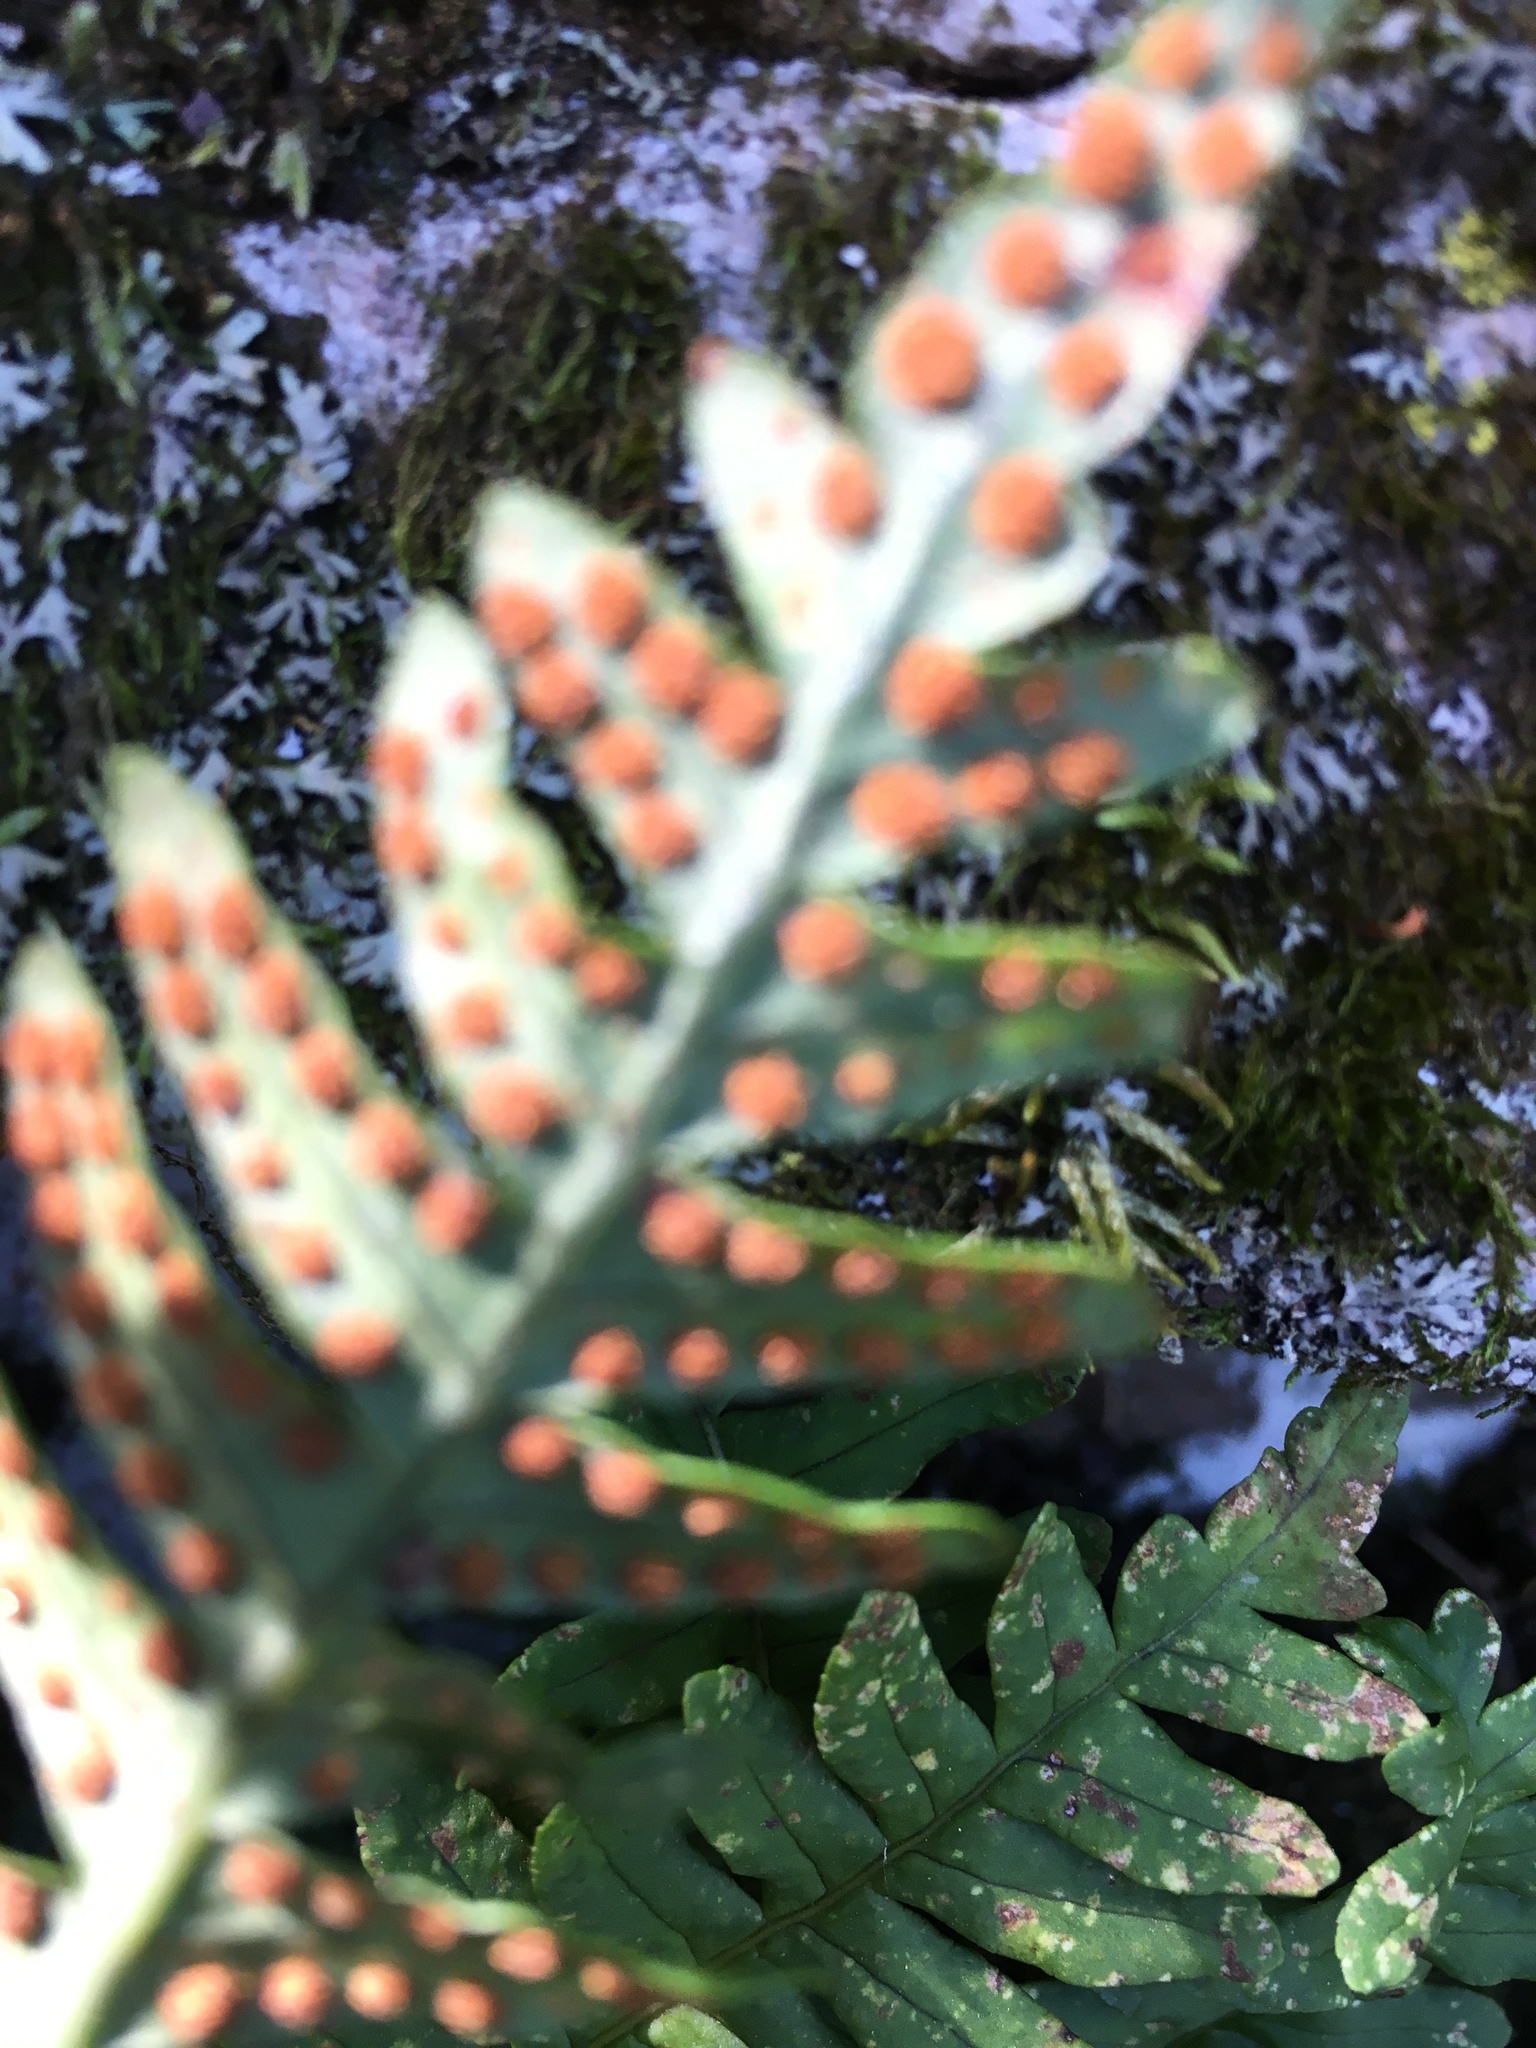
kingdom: Plantae
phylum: Tracheophyta
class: Polypodiopsida
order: Polypodiales
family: Polypodiaceae
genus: Polypodium
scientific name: Polypodium virginianum
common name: American wall fern
